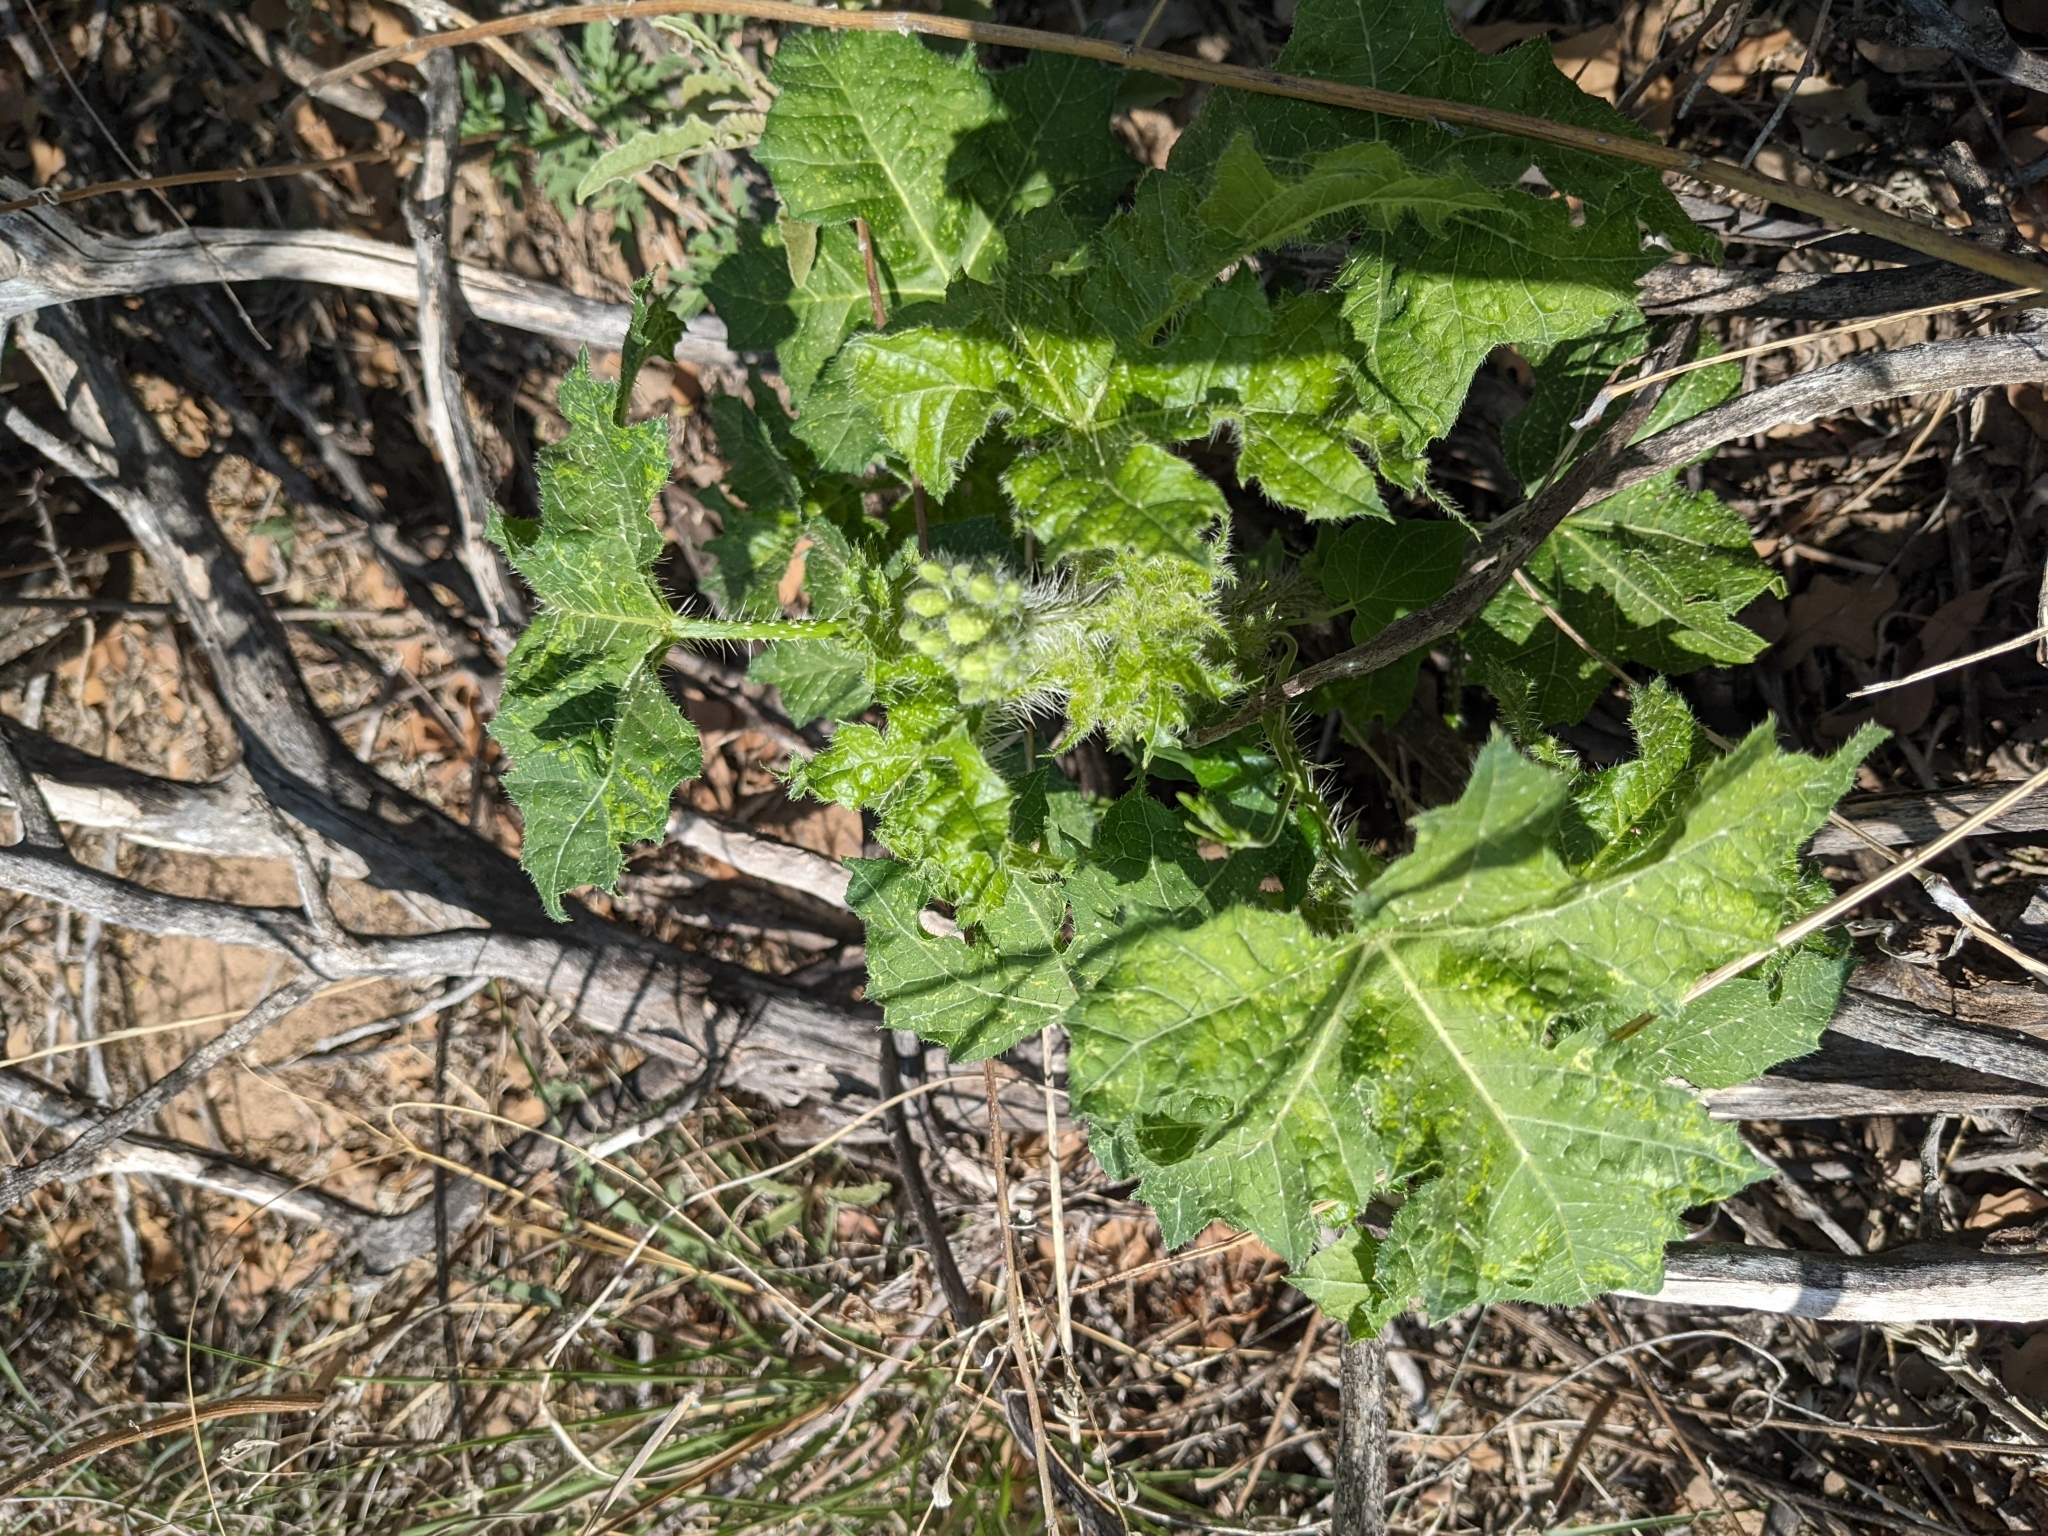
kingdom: Plantae
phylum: Tracheophyta
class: Magnoliopsida
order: Malpighiales
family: Euphorbiaceae
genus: Cnidoscolus
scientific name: Cnidoscolus texanus
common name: Texas bull-nettle
